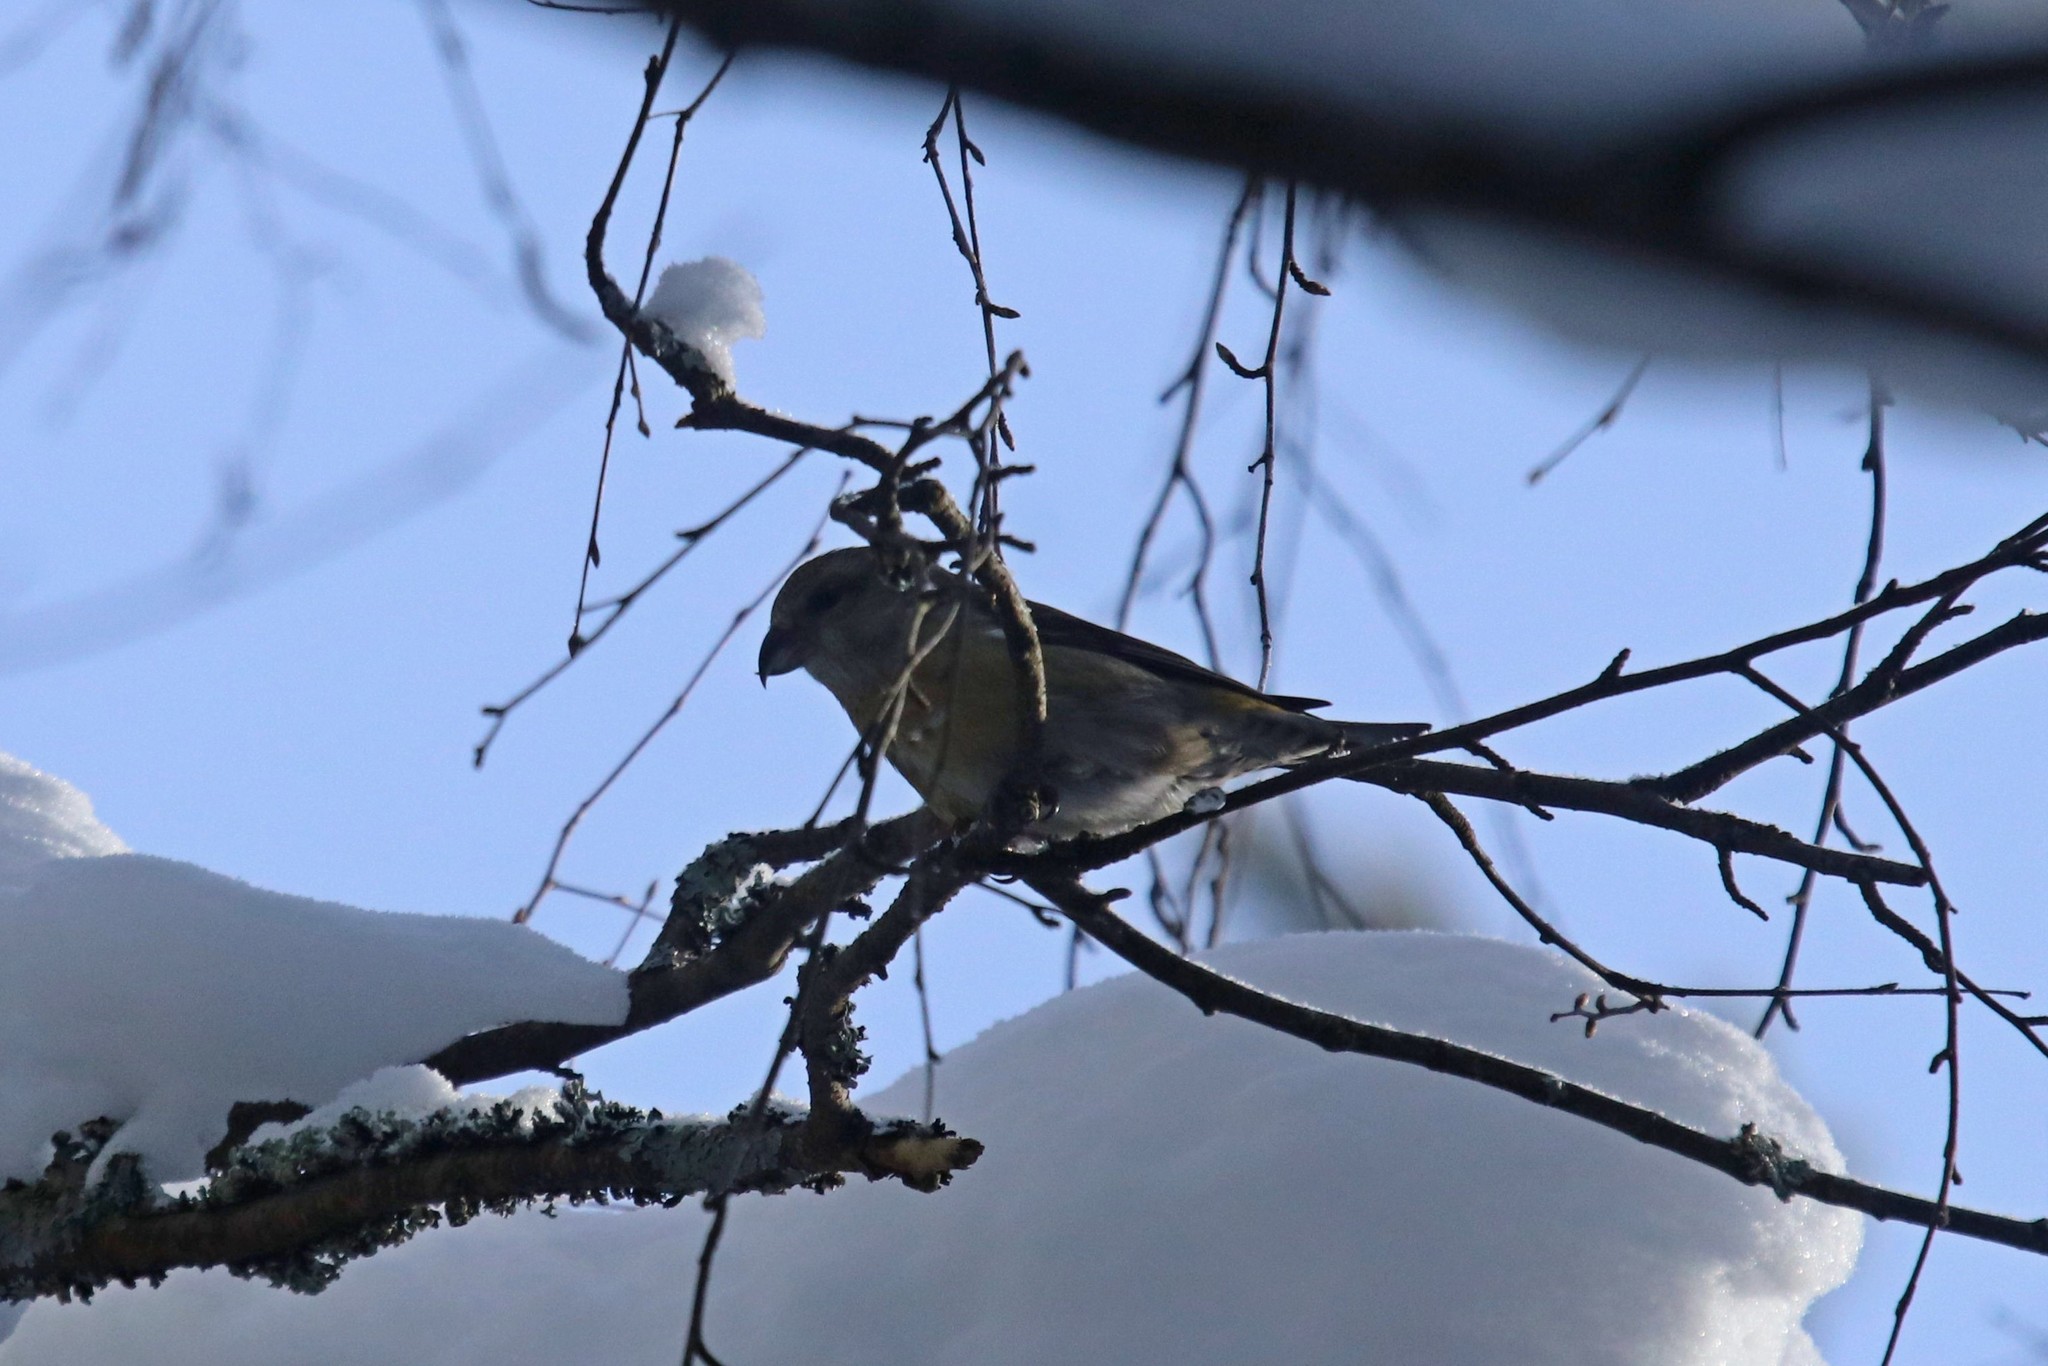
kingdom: Animalia
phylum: Chordata
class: Aves
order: Passeriformes
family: Fringillidae
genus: Loxia
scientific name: Loxia curvirostra
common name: Red crossbill
